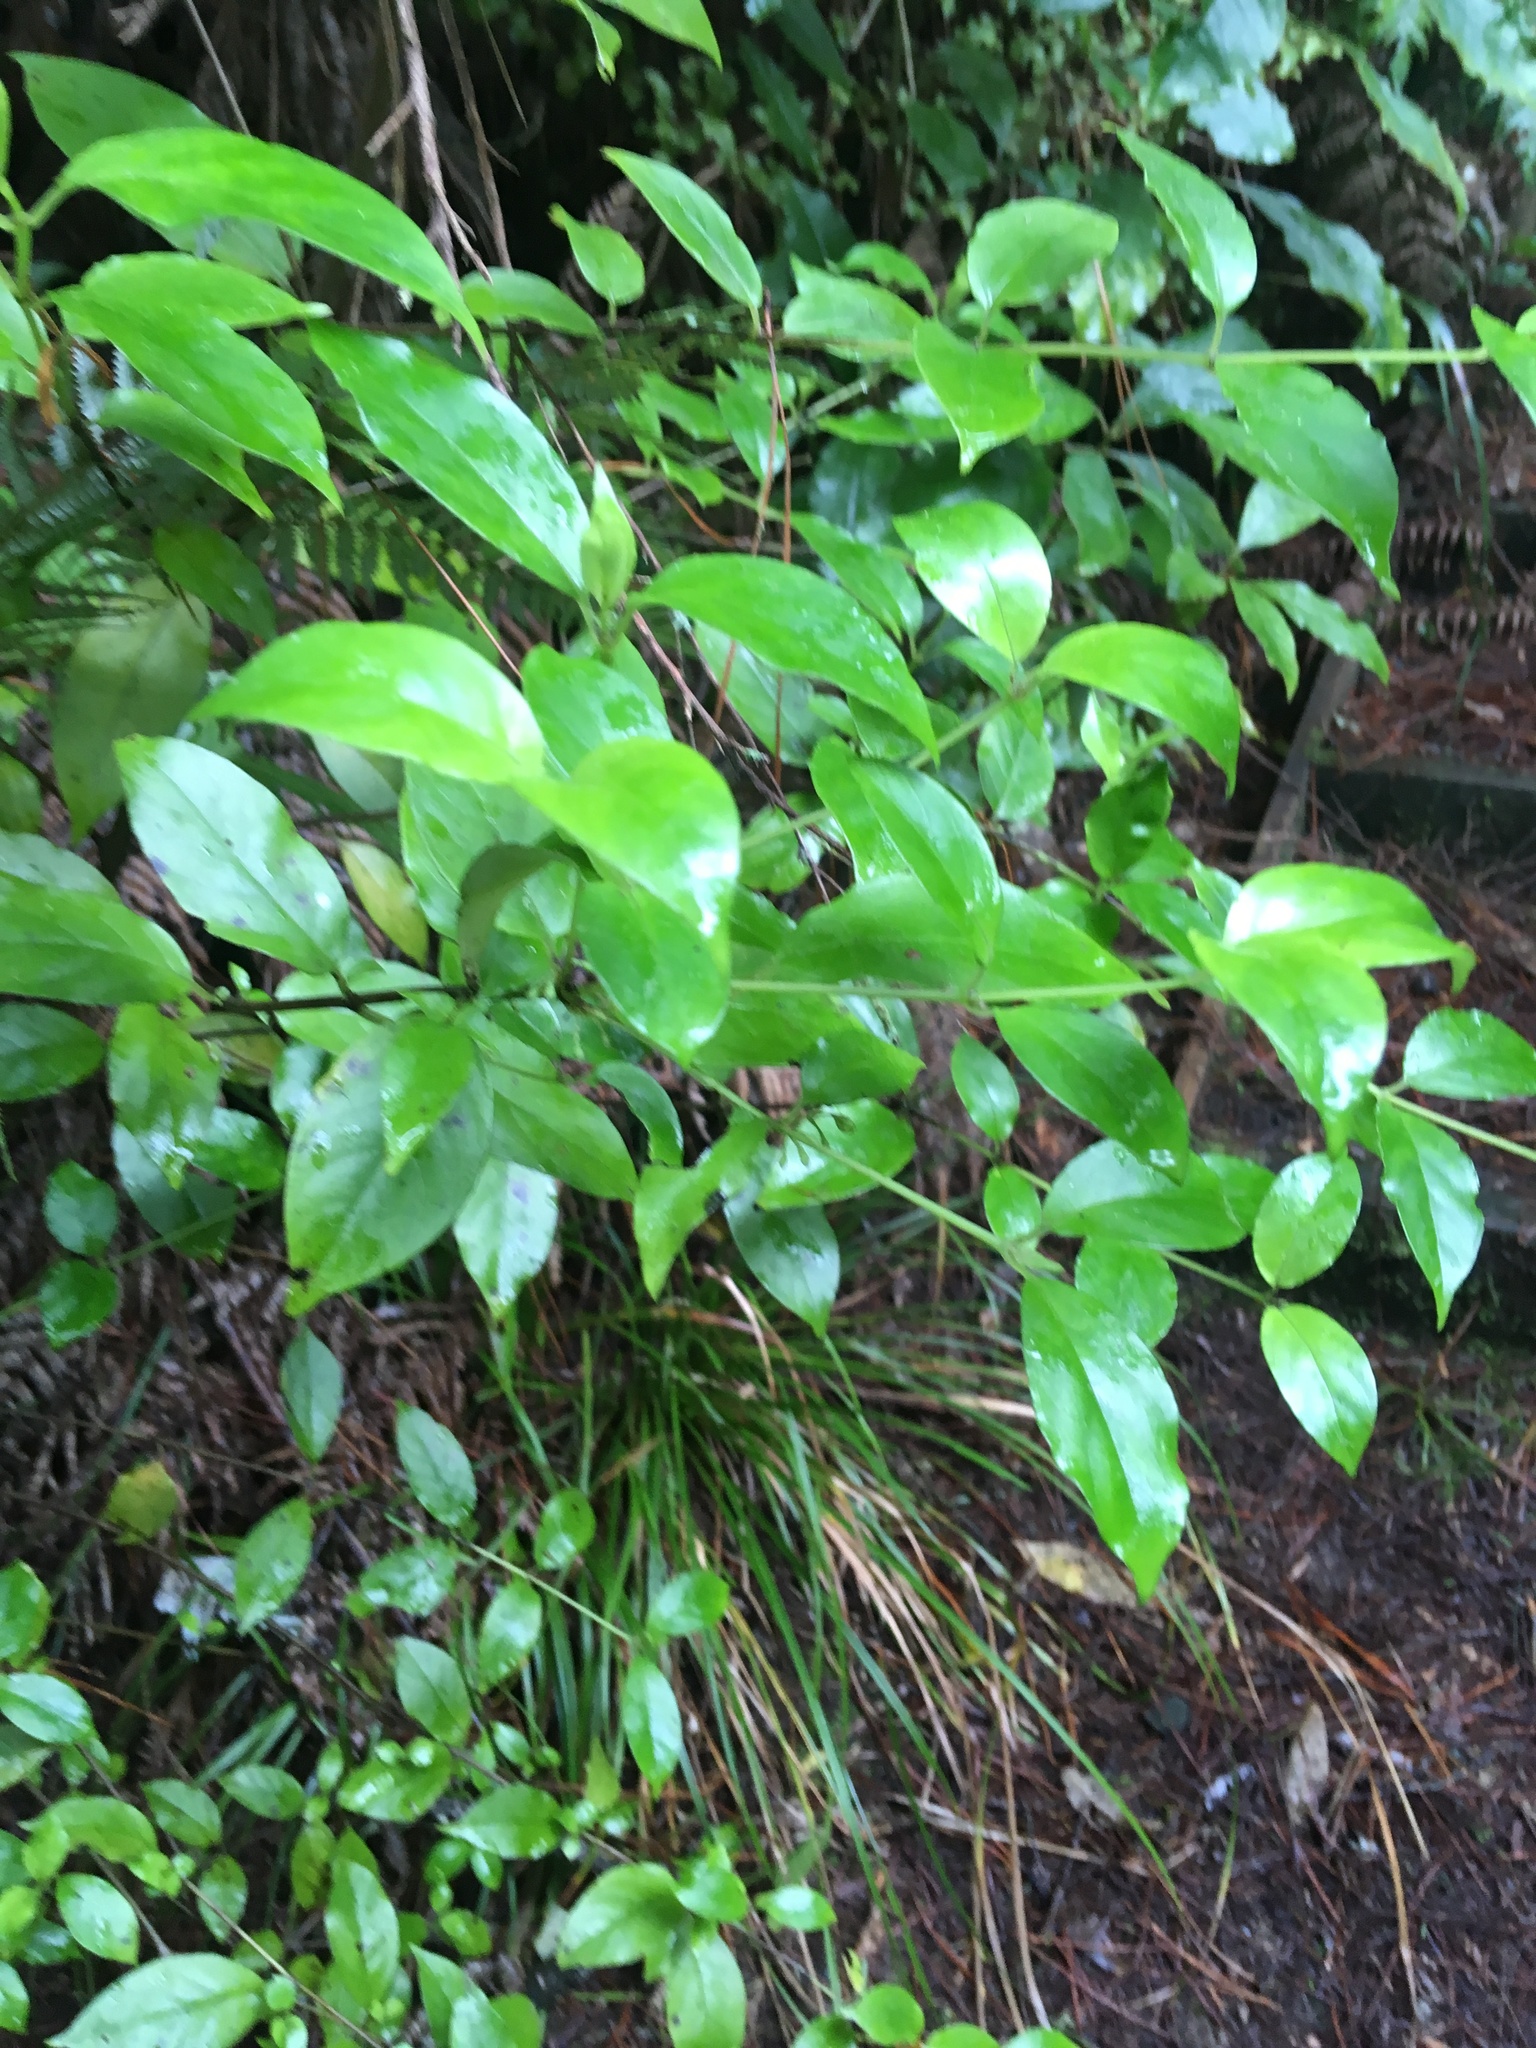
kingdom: Plantae
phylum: Tracheophyta
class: Magnoliopsida
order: Gentianales
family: Loganiaceae
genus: Geniostoma
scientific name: Geniostoma ligustrifolium
